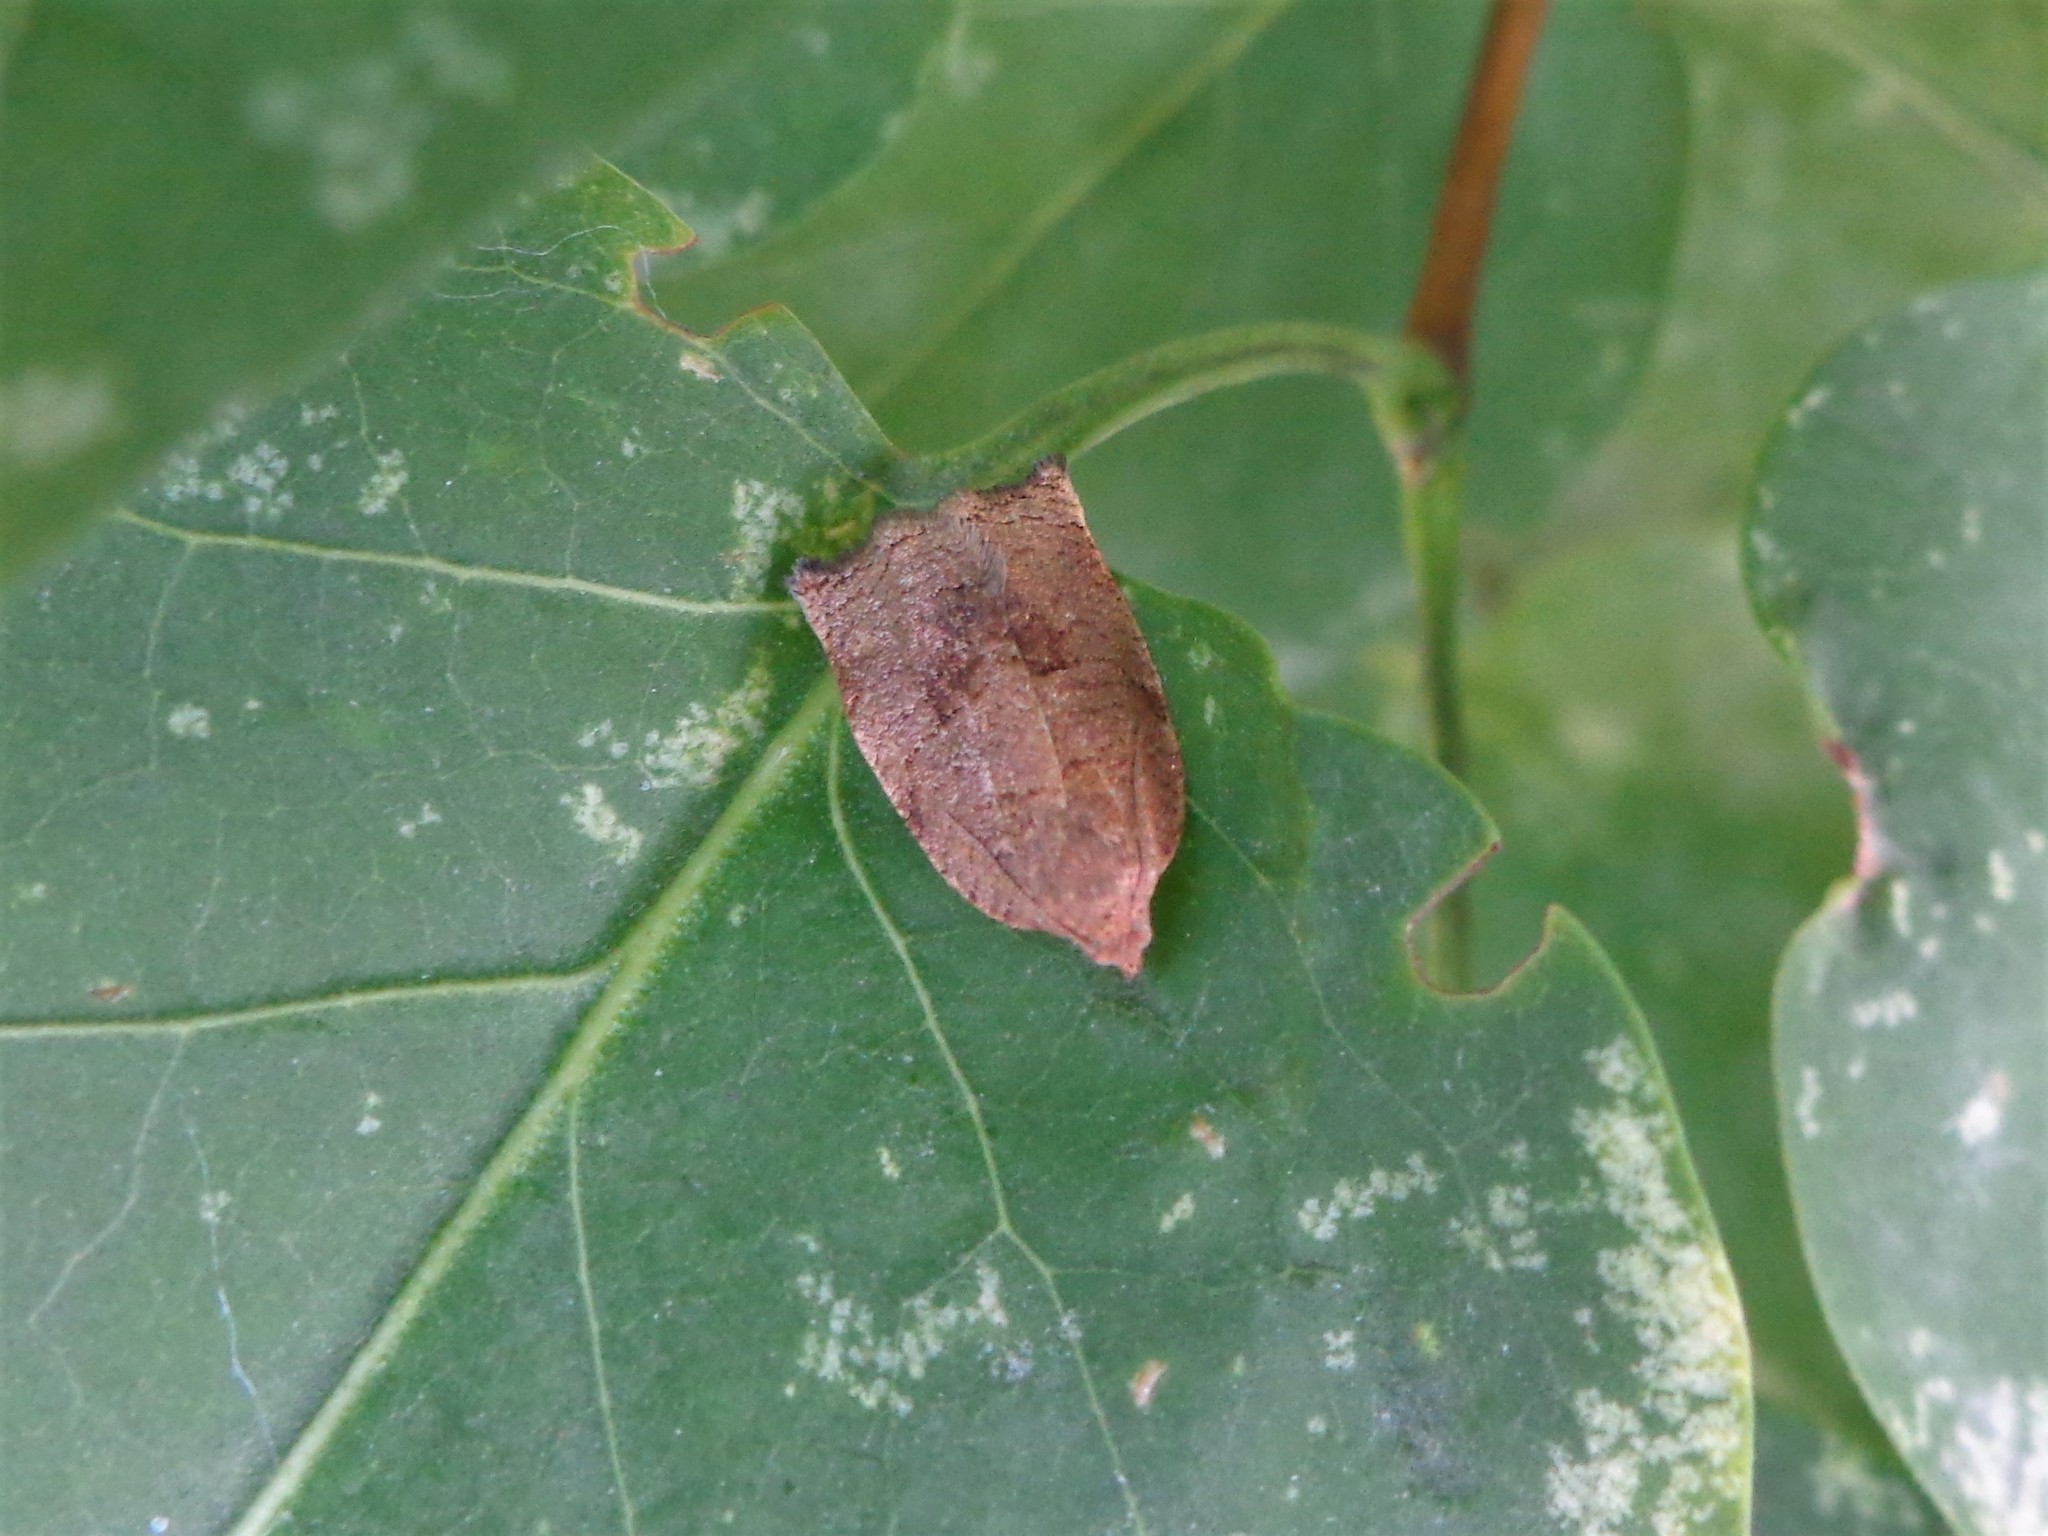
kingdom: Animalia
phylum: Arthropoda
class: Insecta
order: Lepidoptera
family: Tortricidae
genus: Archips
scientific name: Archips rosana
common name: Rose tortrix
